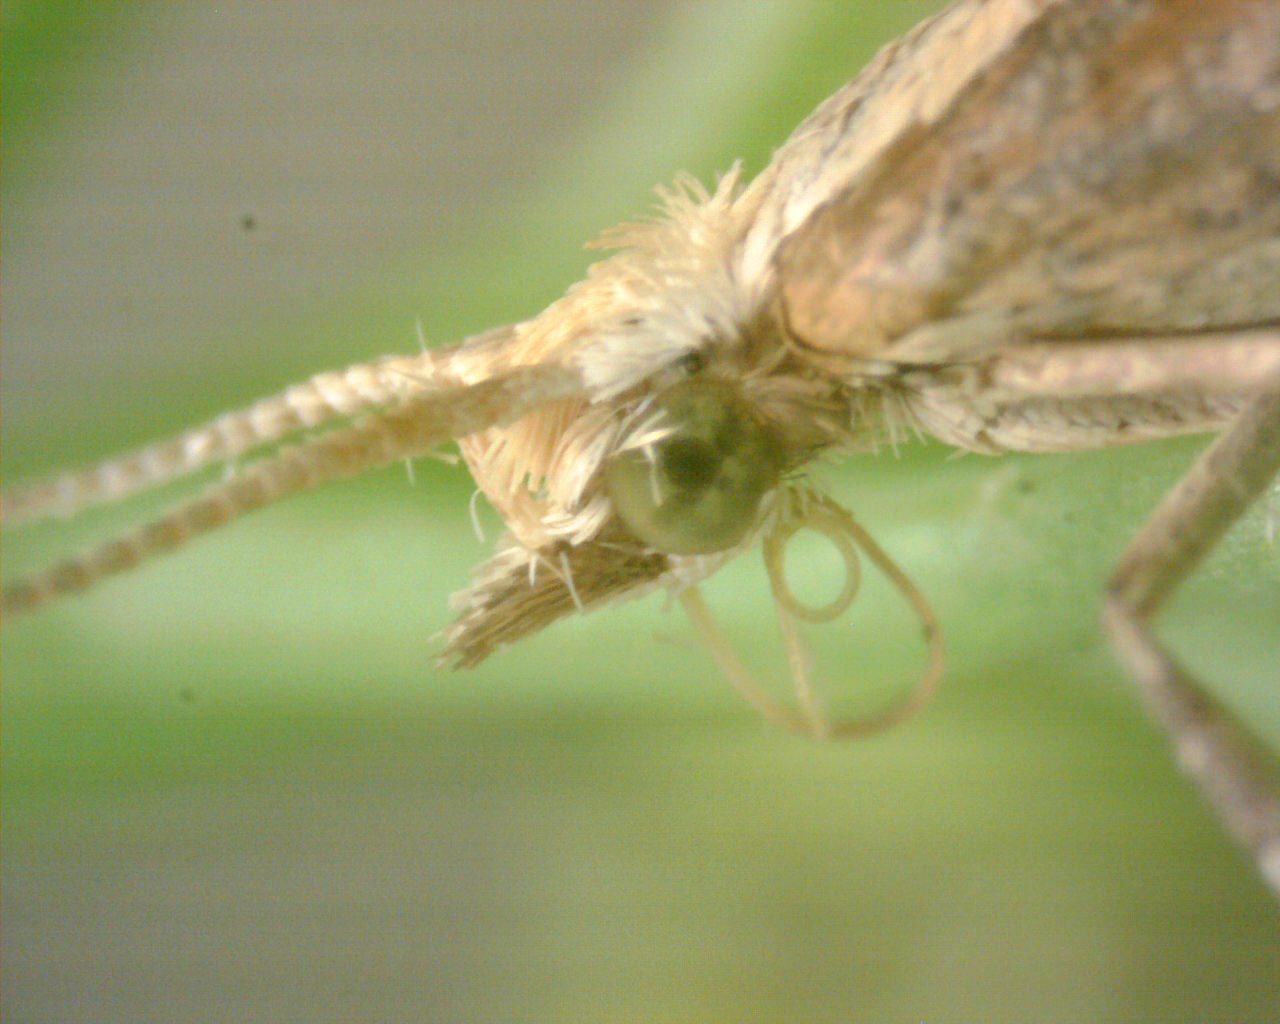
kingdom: Animalia
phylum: Arthropoda
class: Insecta
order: Lepidoptera
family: Plutellidae
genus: Plutella
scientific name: Plutella xylostella
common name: Diamond-back moth
